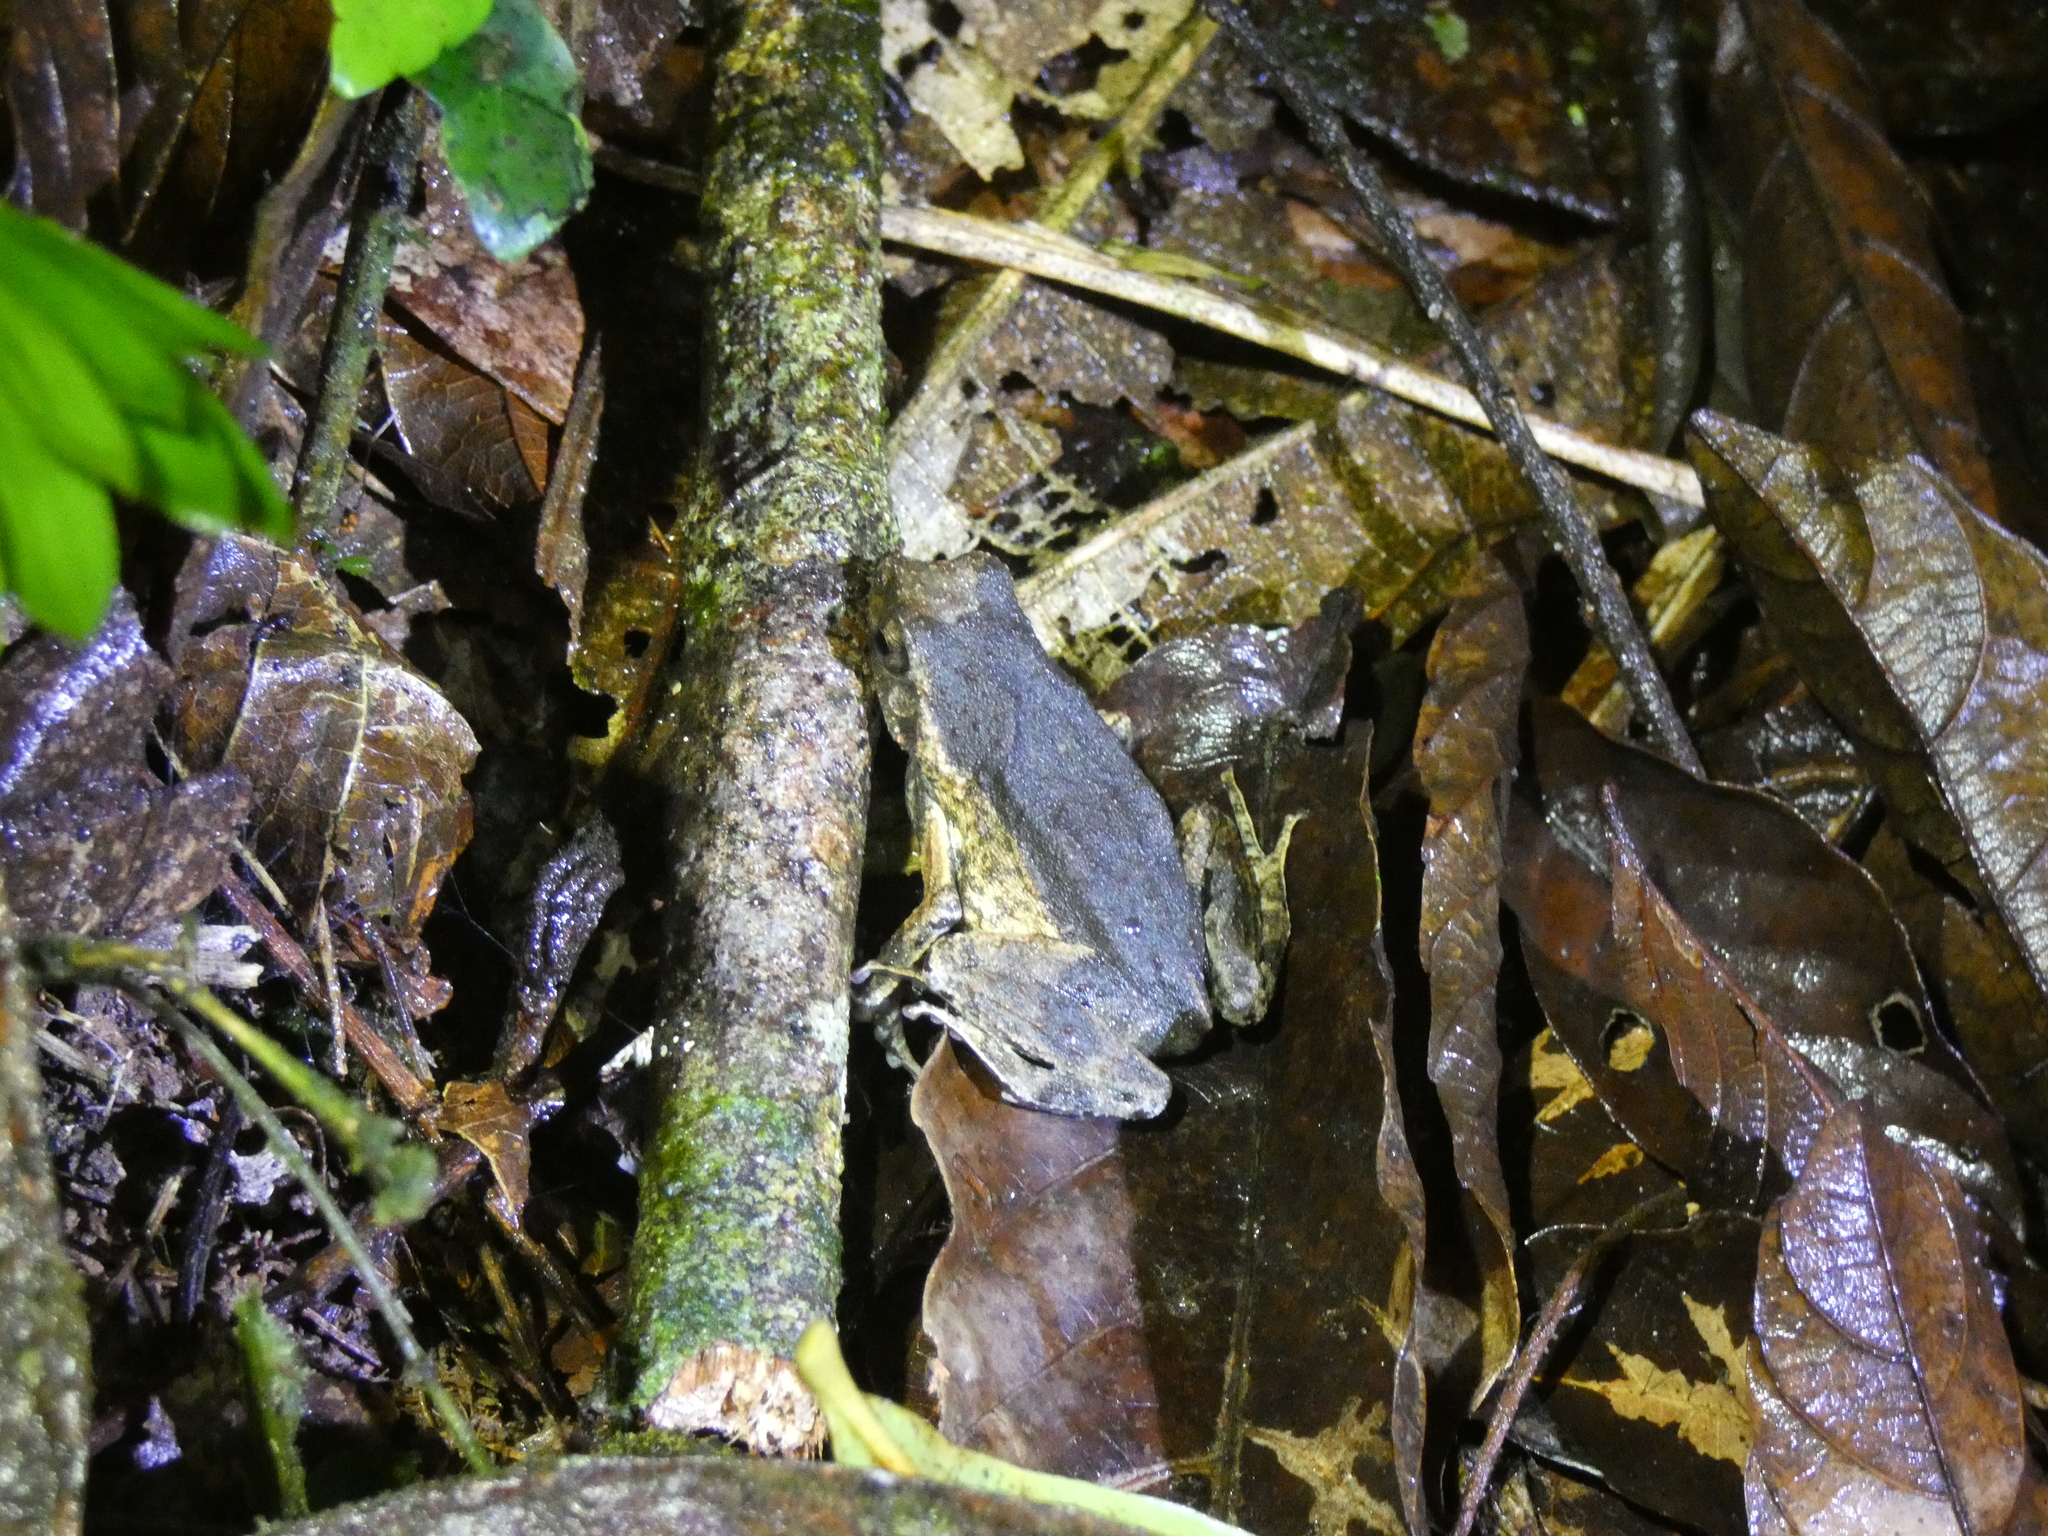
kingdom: Animalia
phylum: Chordata
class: Amphibia
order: Anura
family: Leptodactylidae
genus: Engystomops
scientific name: Engystomops petersi
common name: Peters’ dwarf frog
